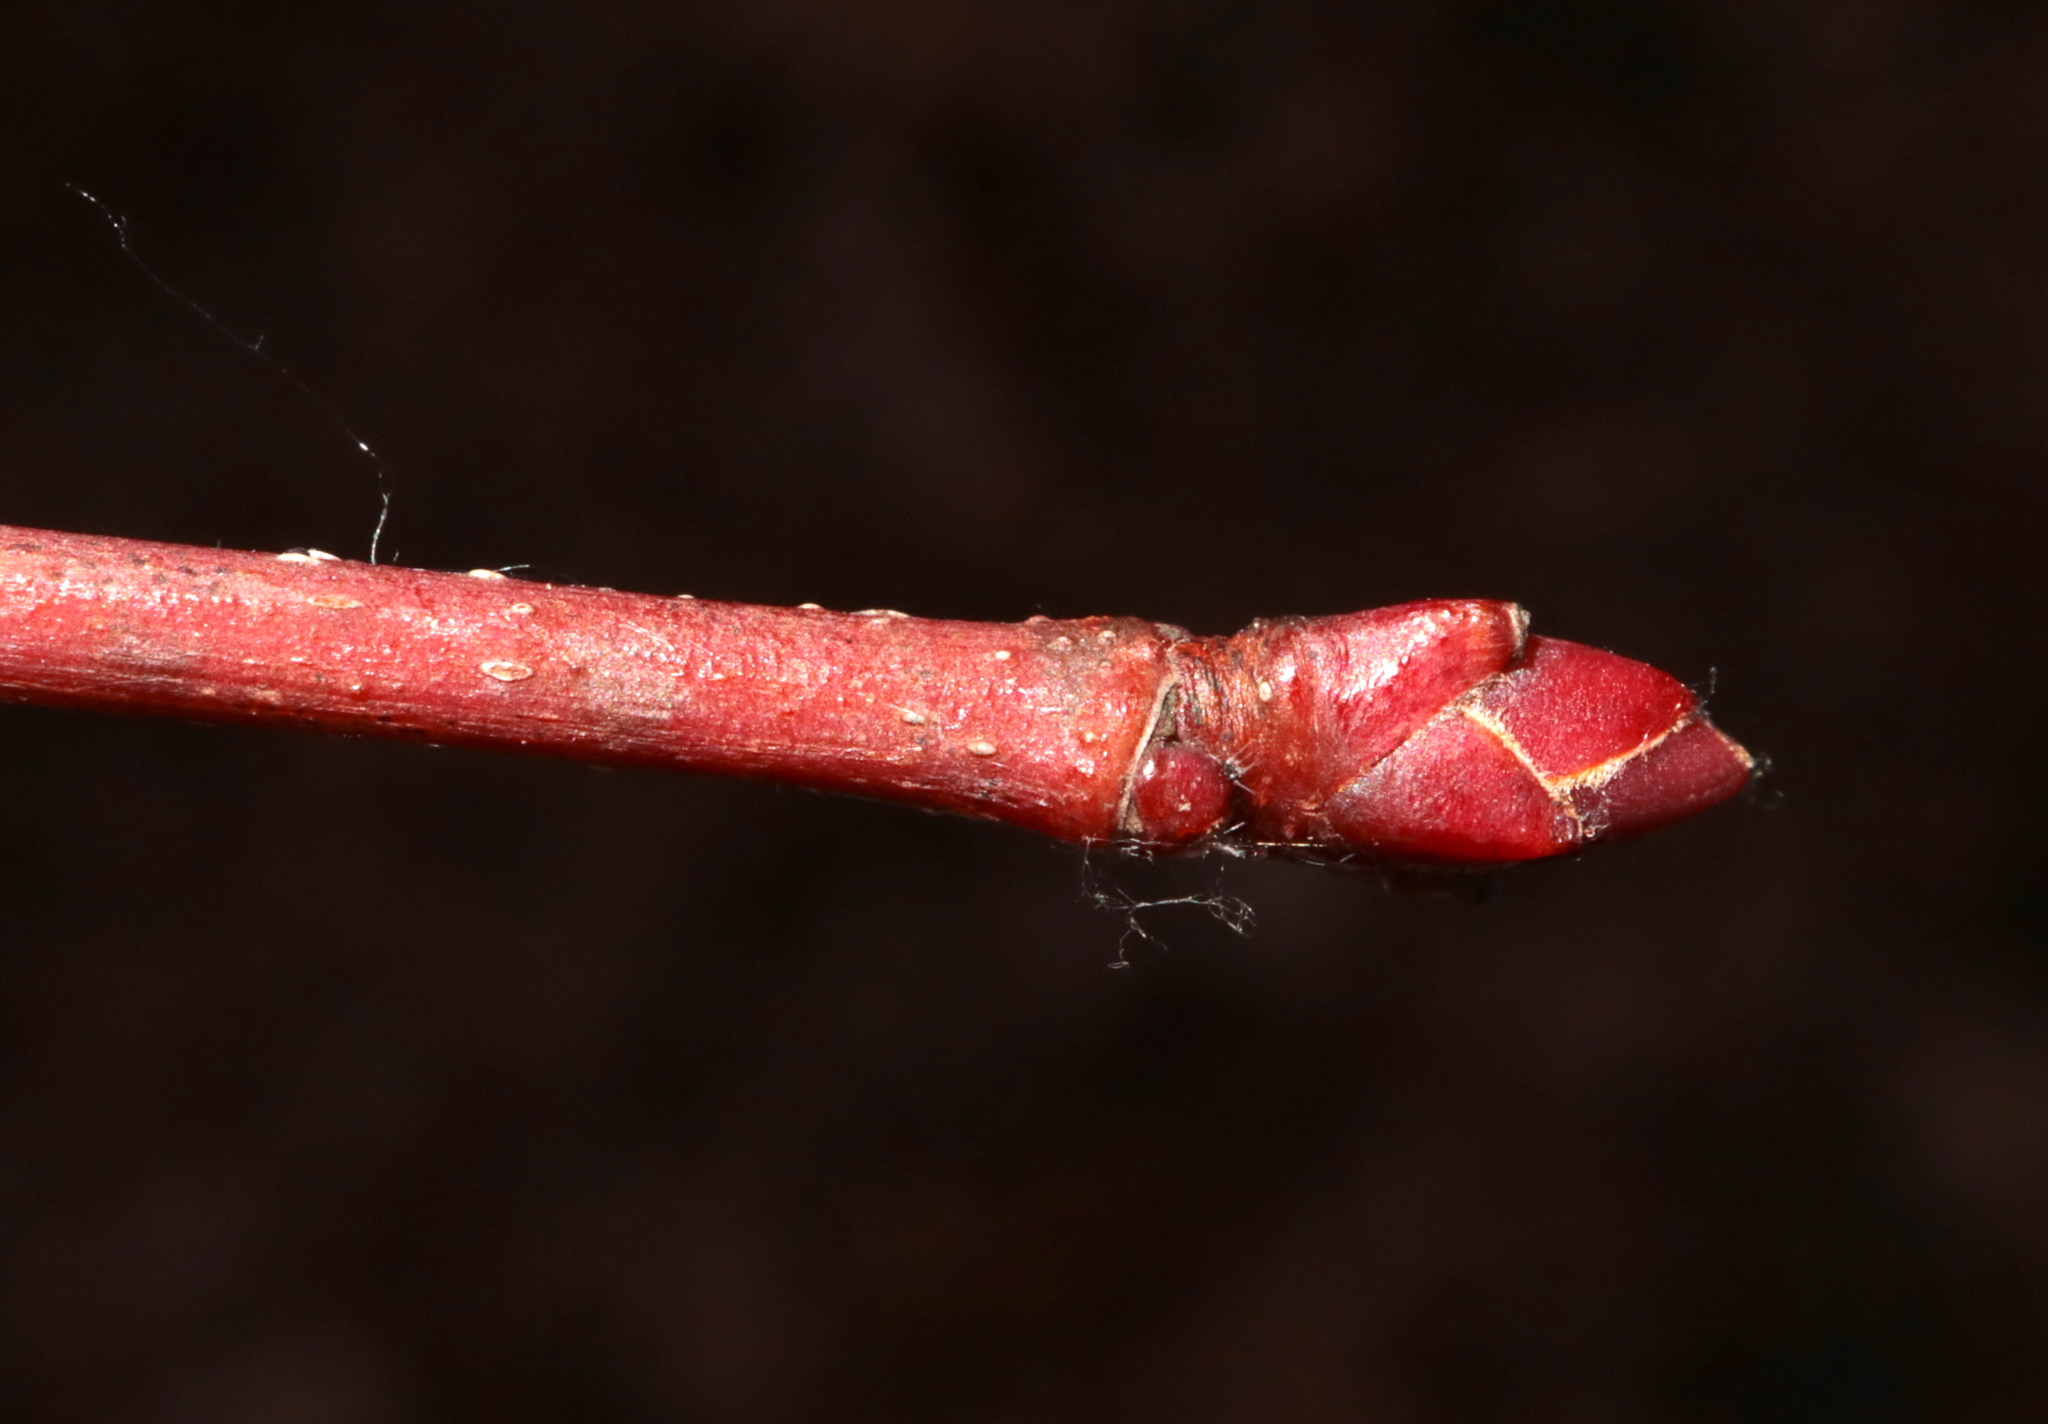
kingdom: Plantae
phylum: Tracheophyta
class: Magnoliopsida
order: Sapindales
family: Sapindaceae
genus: Acer
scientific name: Acer rubrum
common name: Red maple
